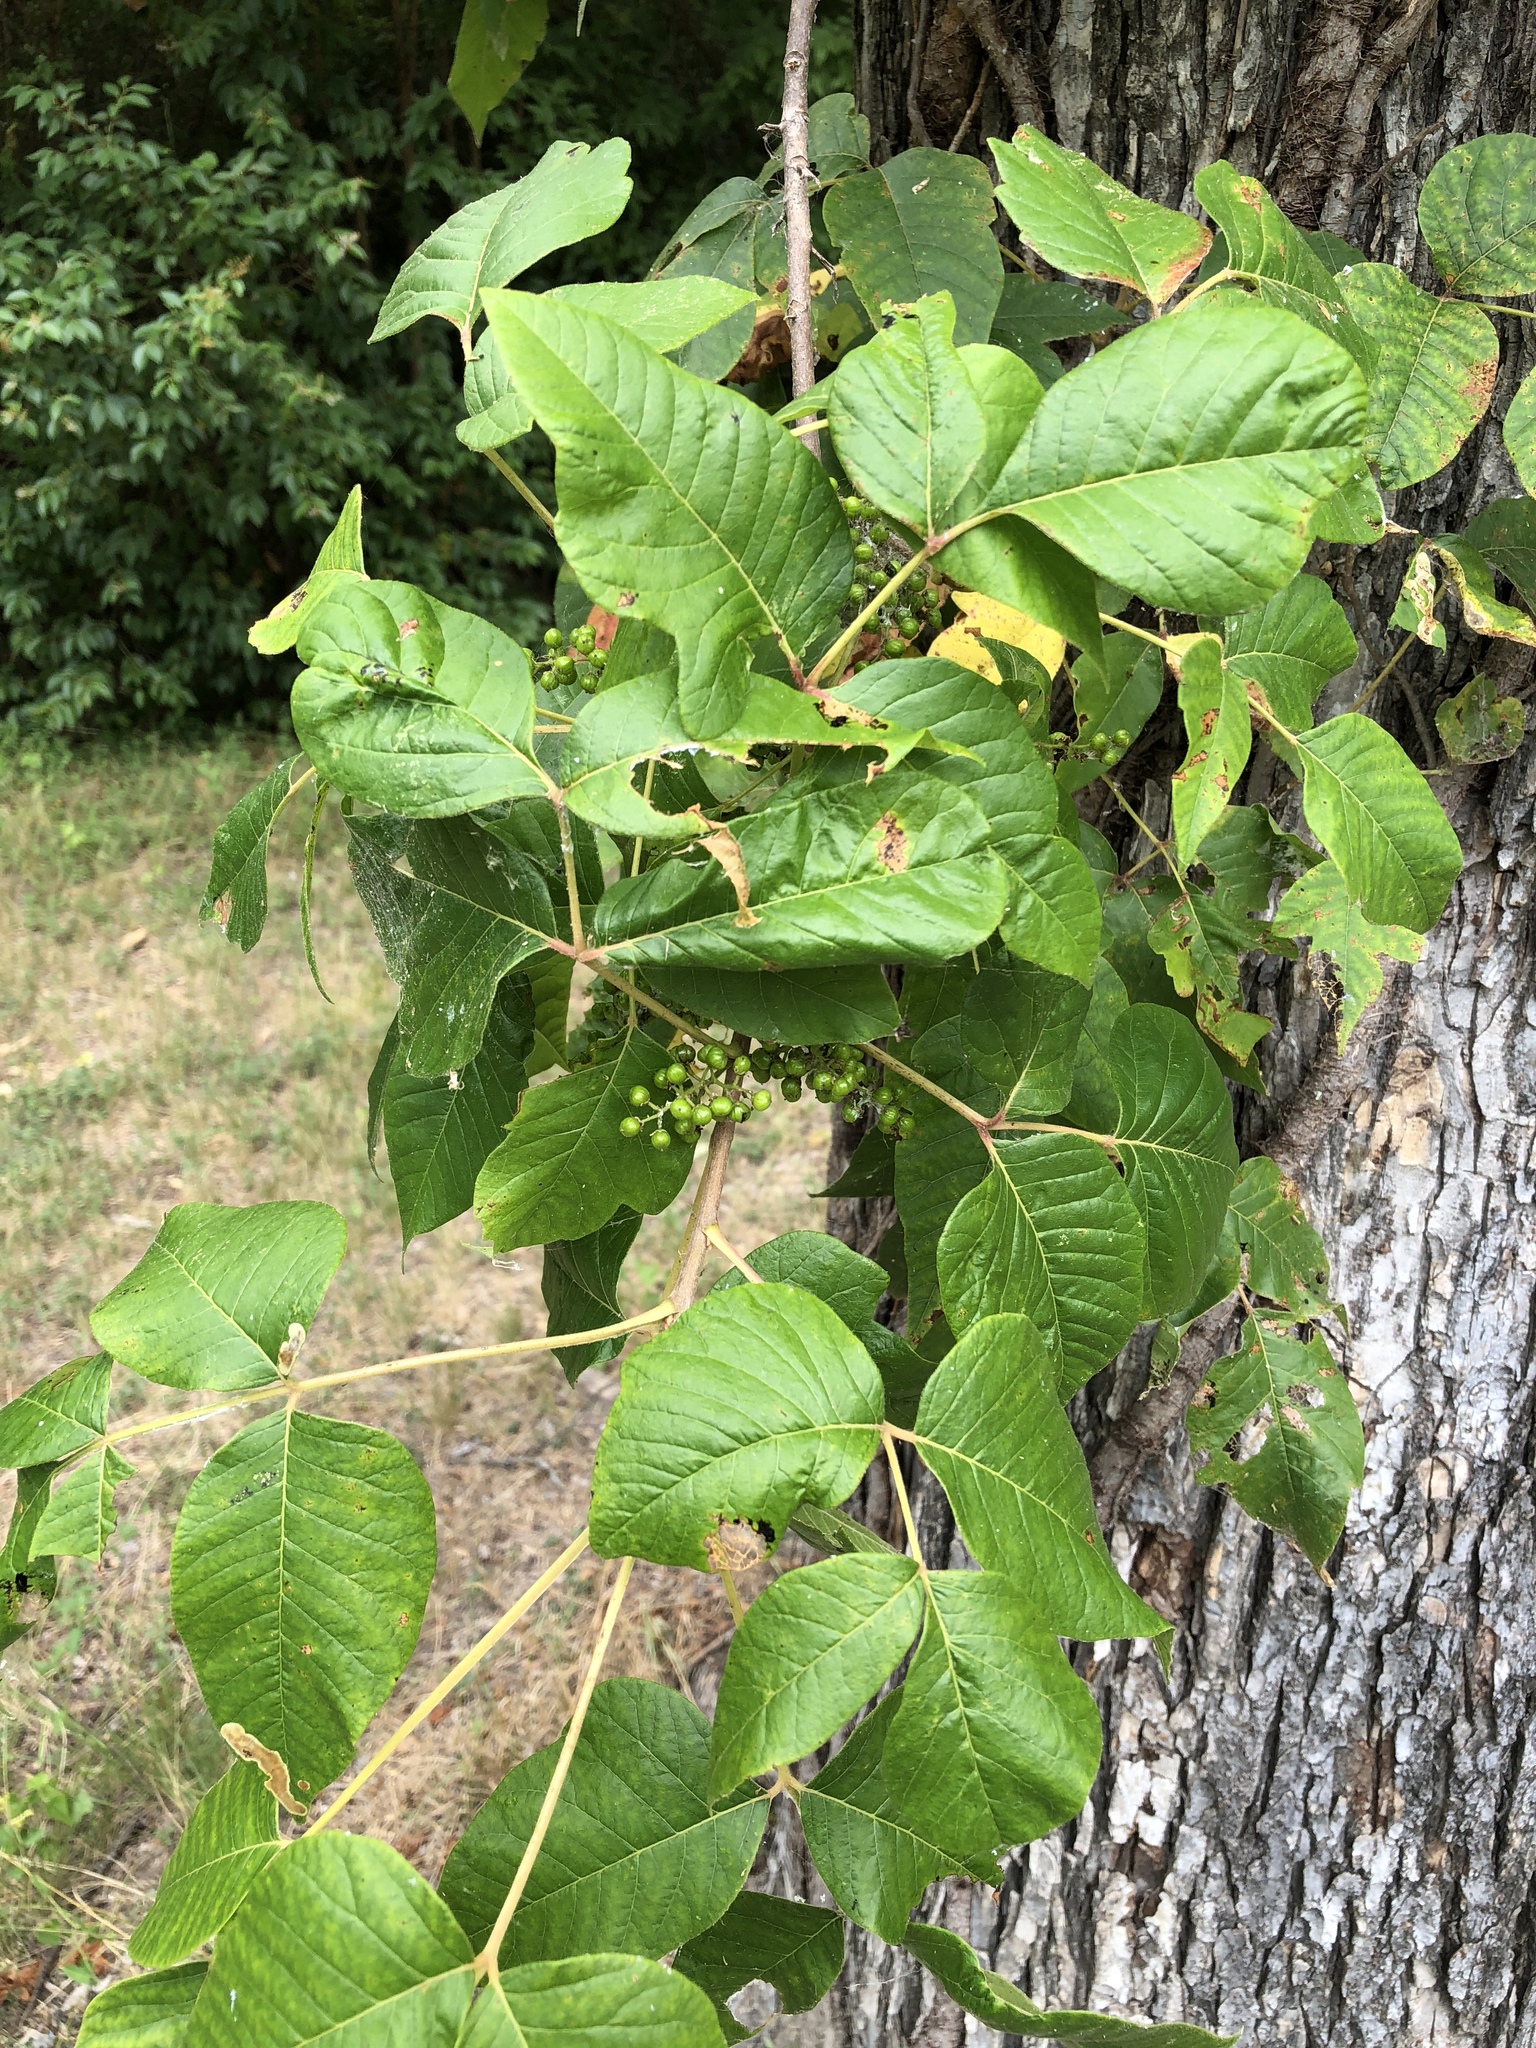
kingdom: Plantae
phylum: Tracheophyta
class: Magnoliopsida
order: Sapindales
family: Anacardiaceae
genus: Toxicodendron
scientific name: Toxicodendron radicans
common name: Poison ivy
